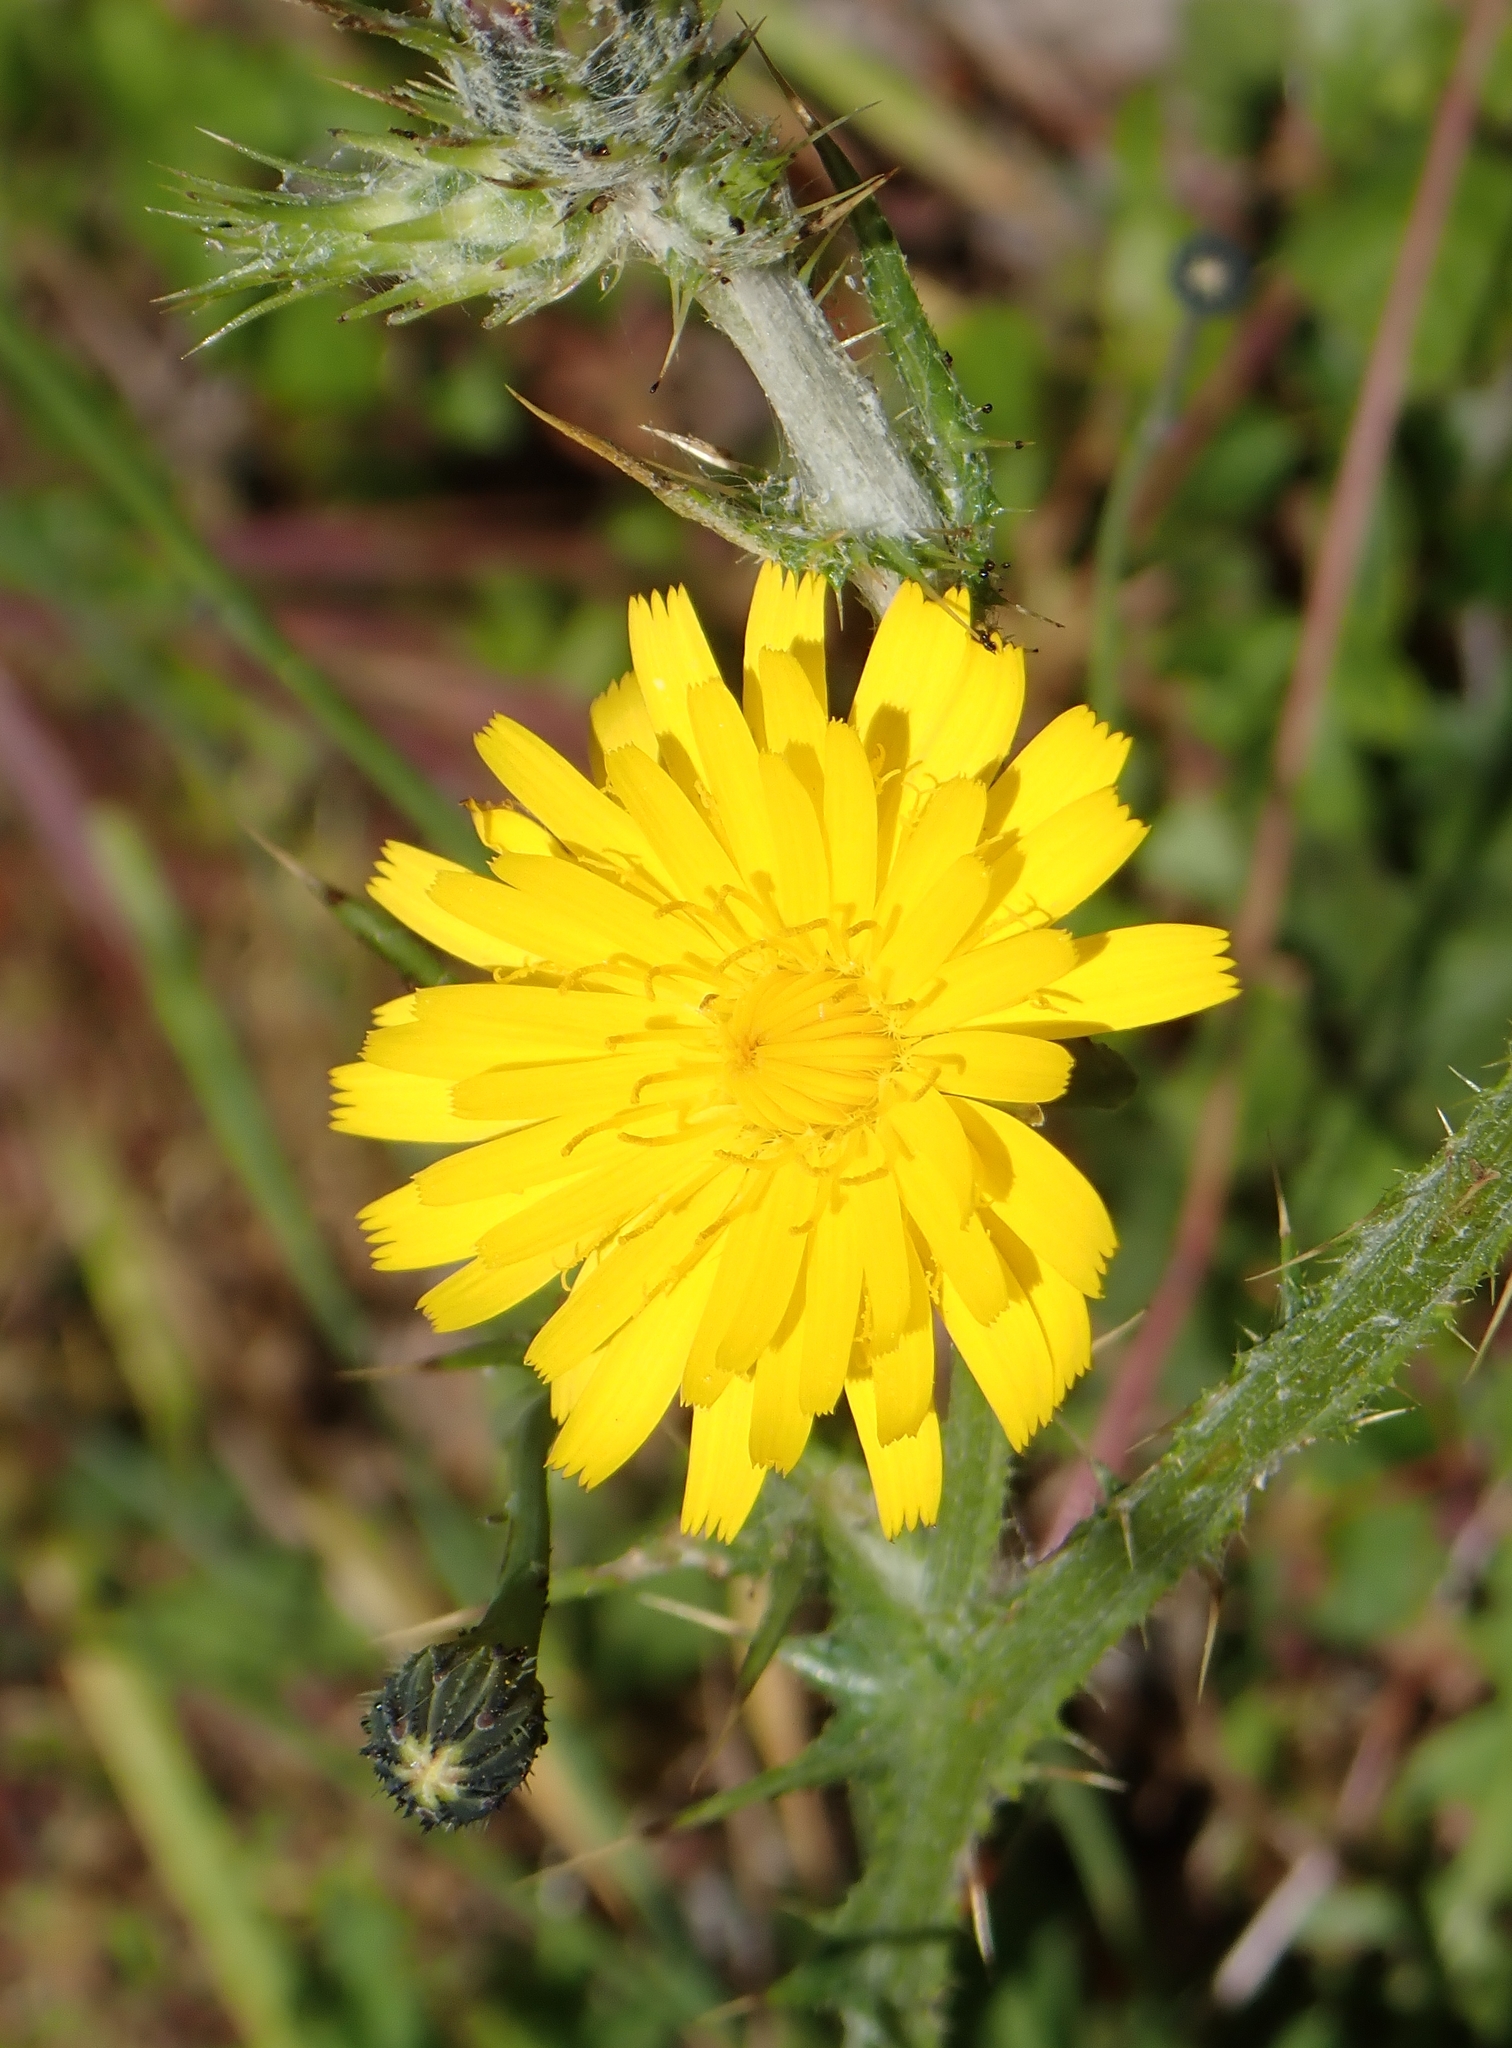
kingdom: Plantae
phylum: Tracheophyta
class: Magnoliopsida
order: Asterales
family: Asteraceae
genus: Hypochaeris
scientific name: Hypochaeris radicata
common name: Flatweed
